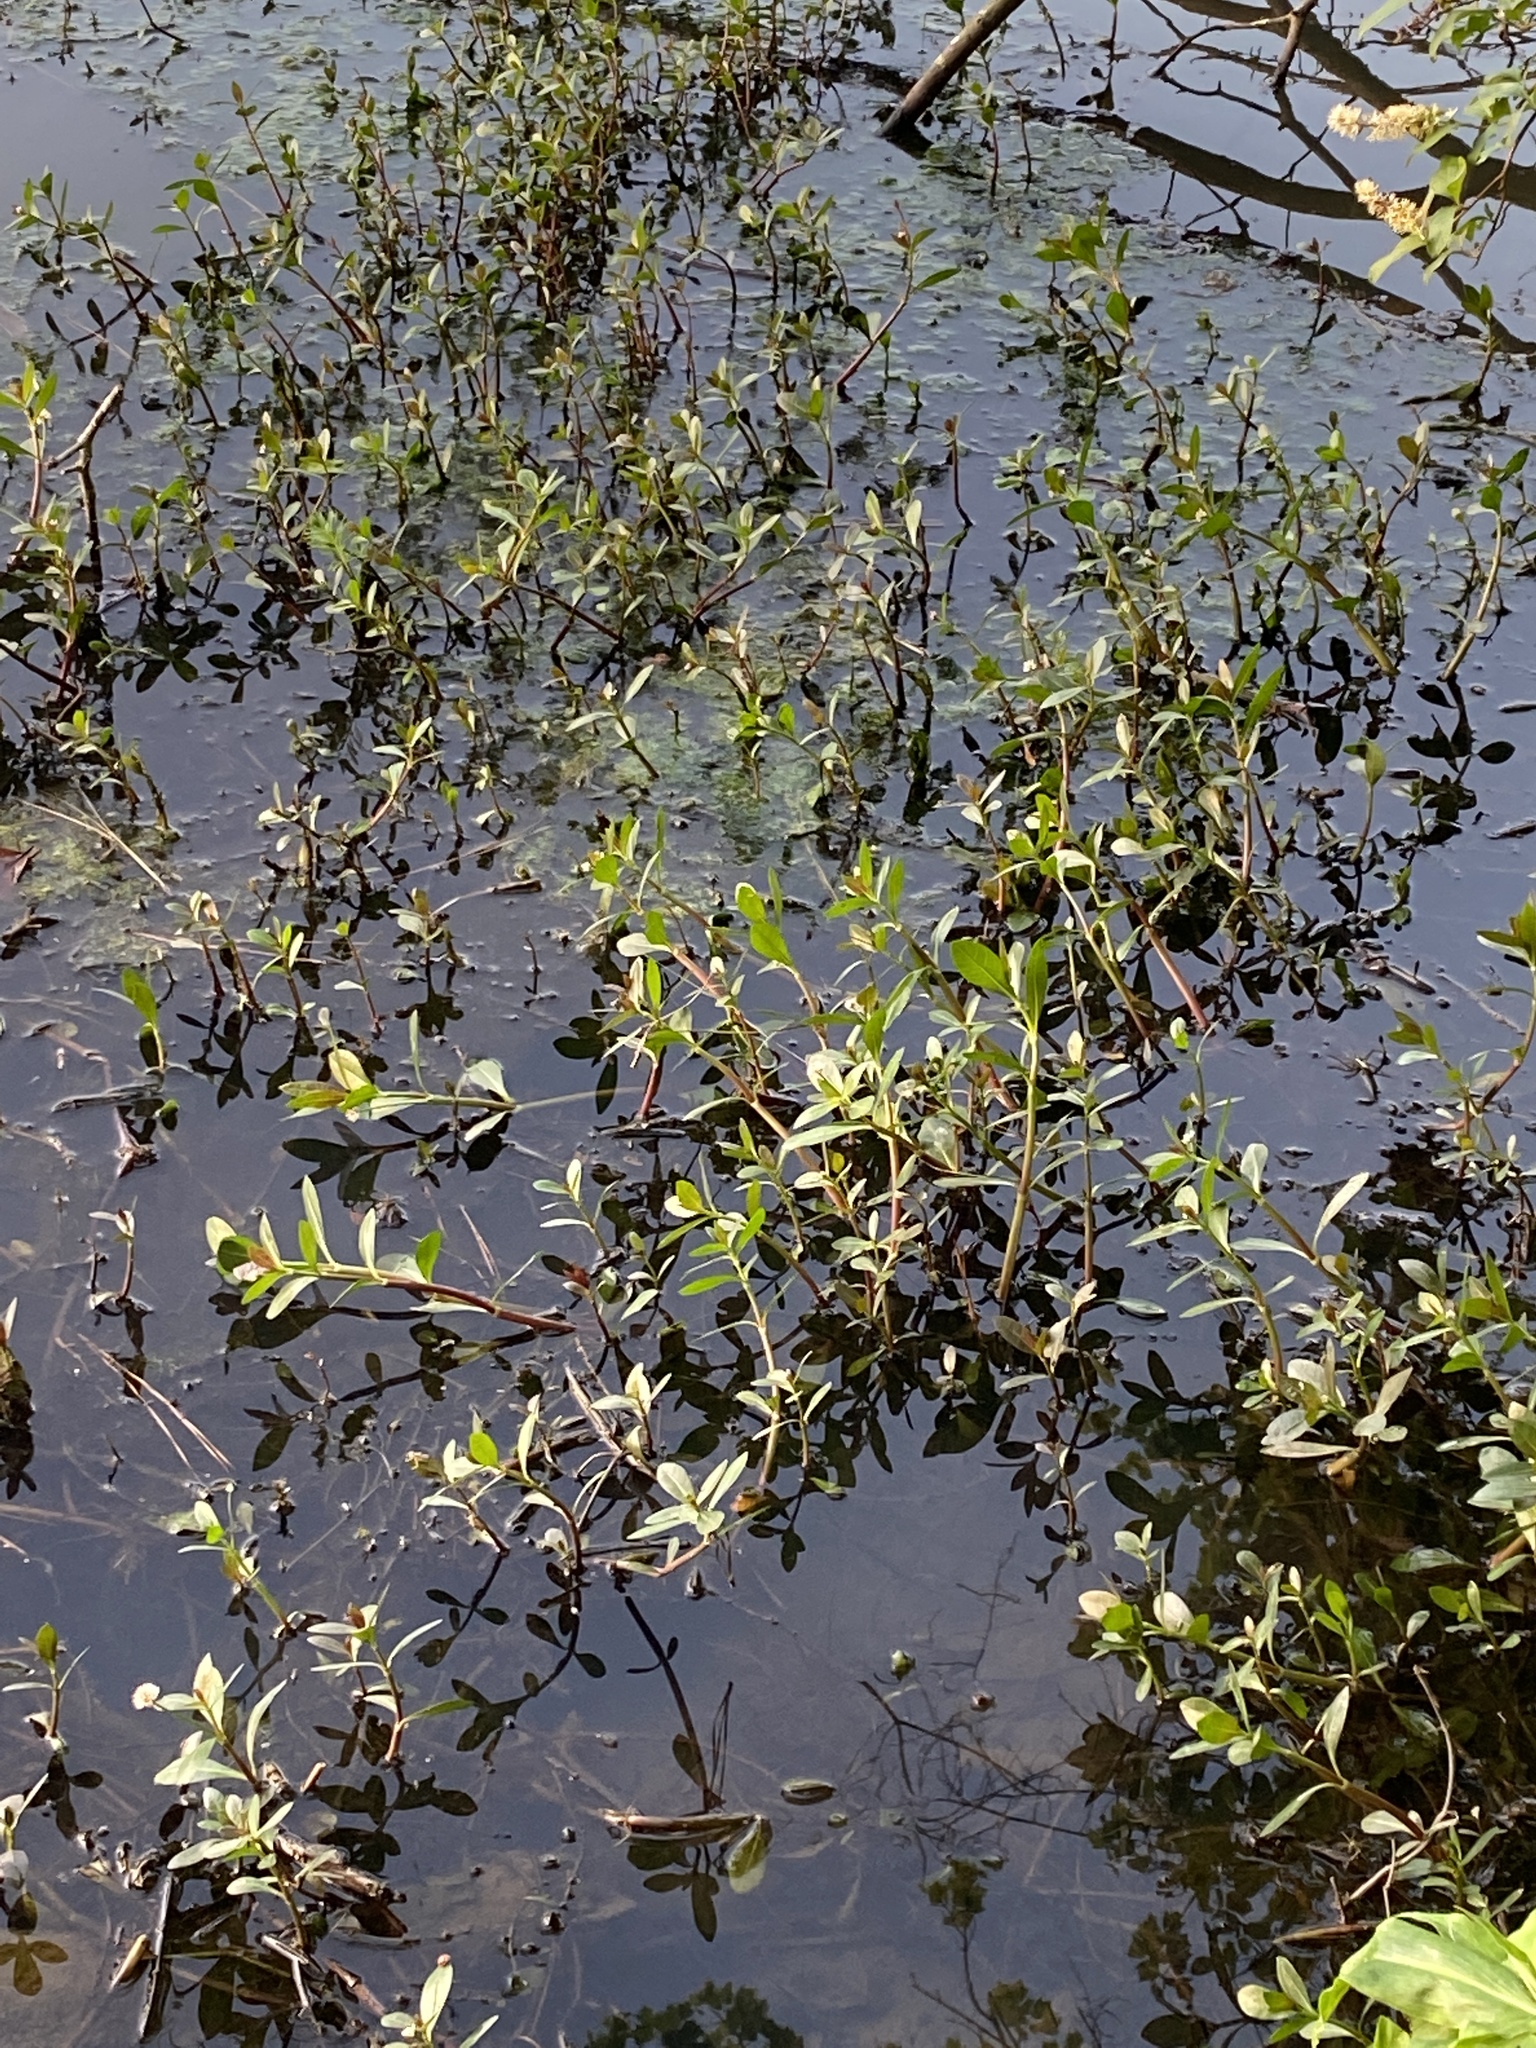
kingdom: Plantae
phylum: Tracheophyta
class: Magnoliopsida
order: Caryophyllales
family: Amaranthaceae
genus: Alternanthera
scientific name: Alternanthera philoxeroides
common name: Alligatorweed
